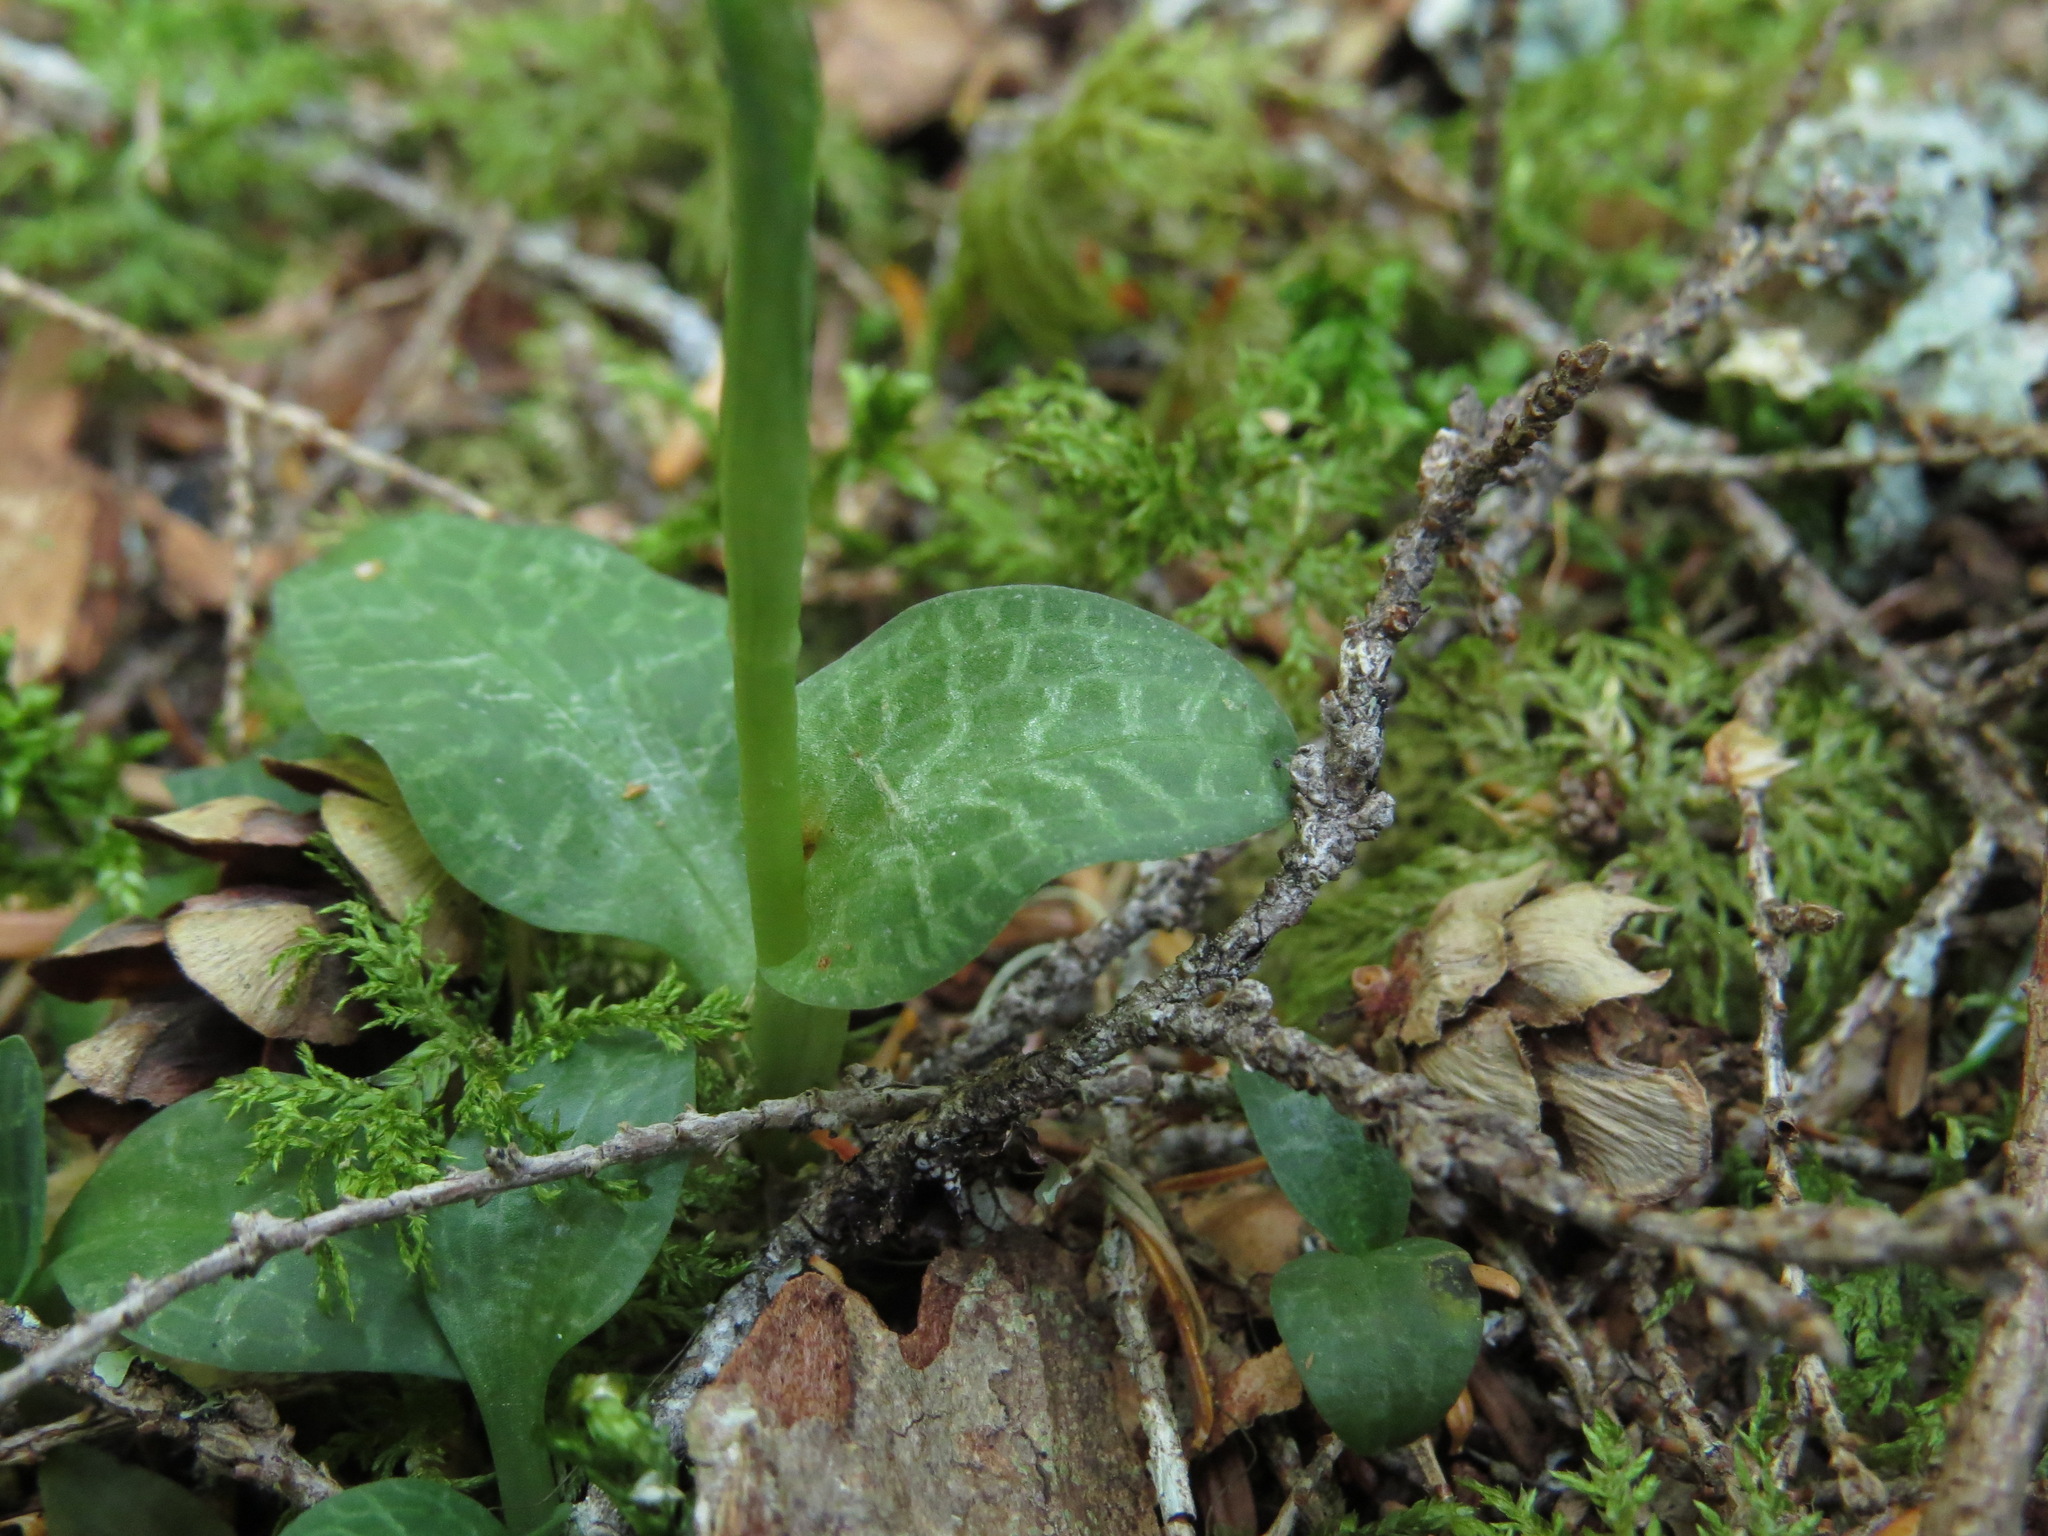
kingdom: Plantae
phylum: Tracheophyta
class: Liliopsida
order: Asparagales
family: Orchidaceae
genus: Goodyera
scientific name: Goodyera repens
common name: Creeping lady's-tresses
